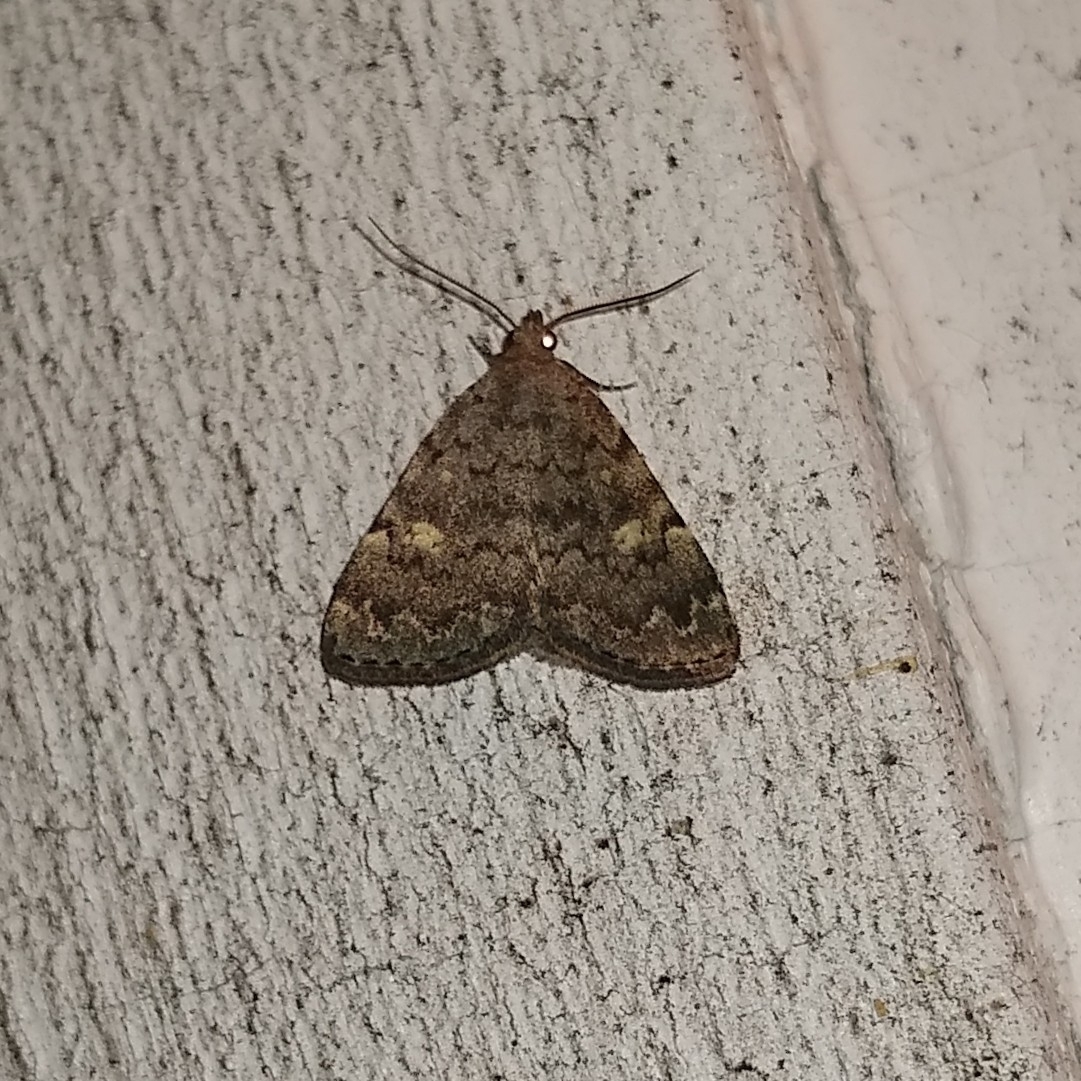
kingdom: Animalia
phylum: Arthropoda
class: Insecta
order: Lepidoptera
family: Erebidae
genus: Idia
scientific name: Idia aemula
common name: Common idia moth
